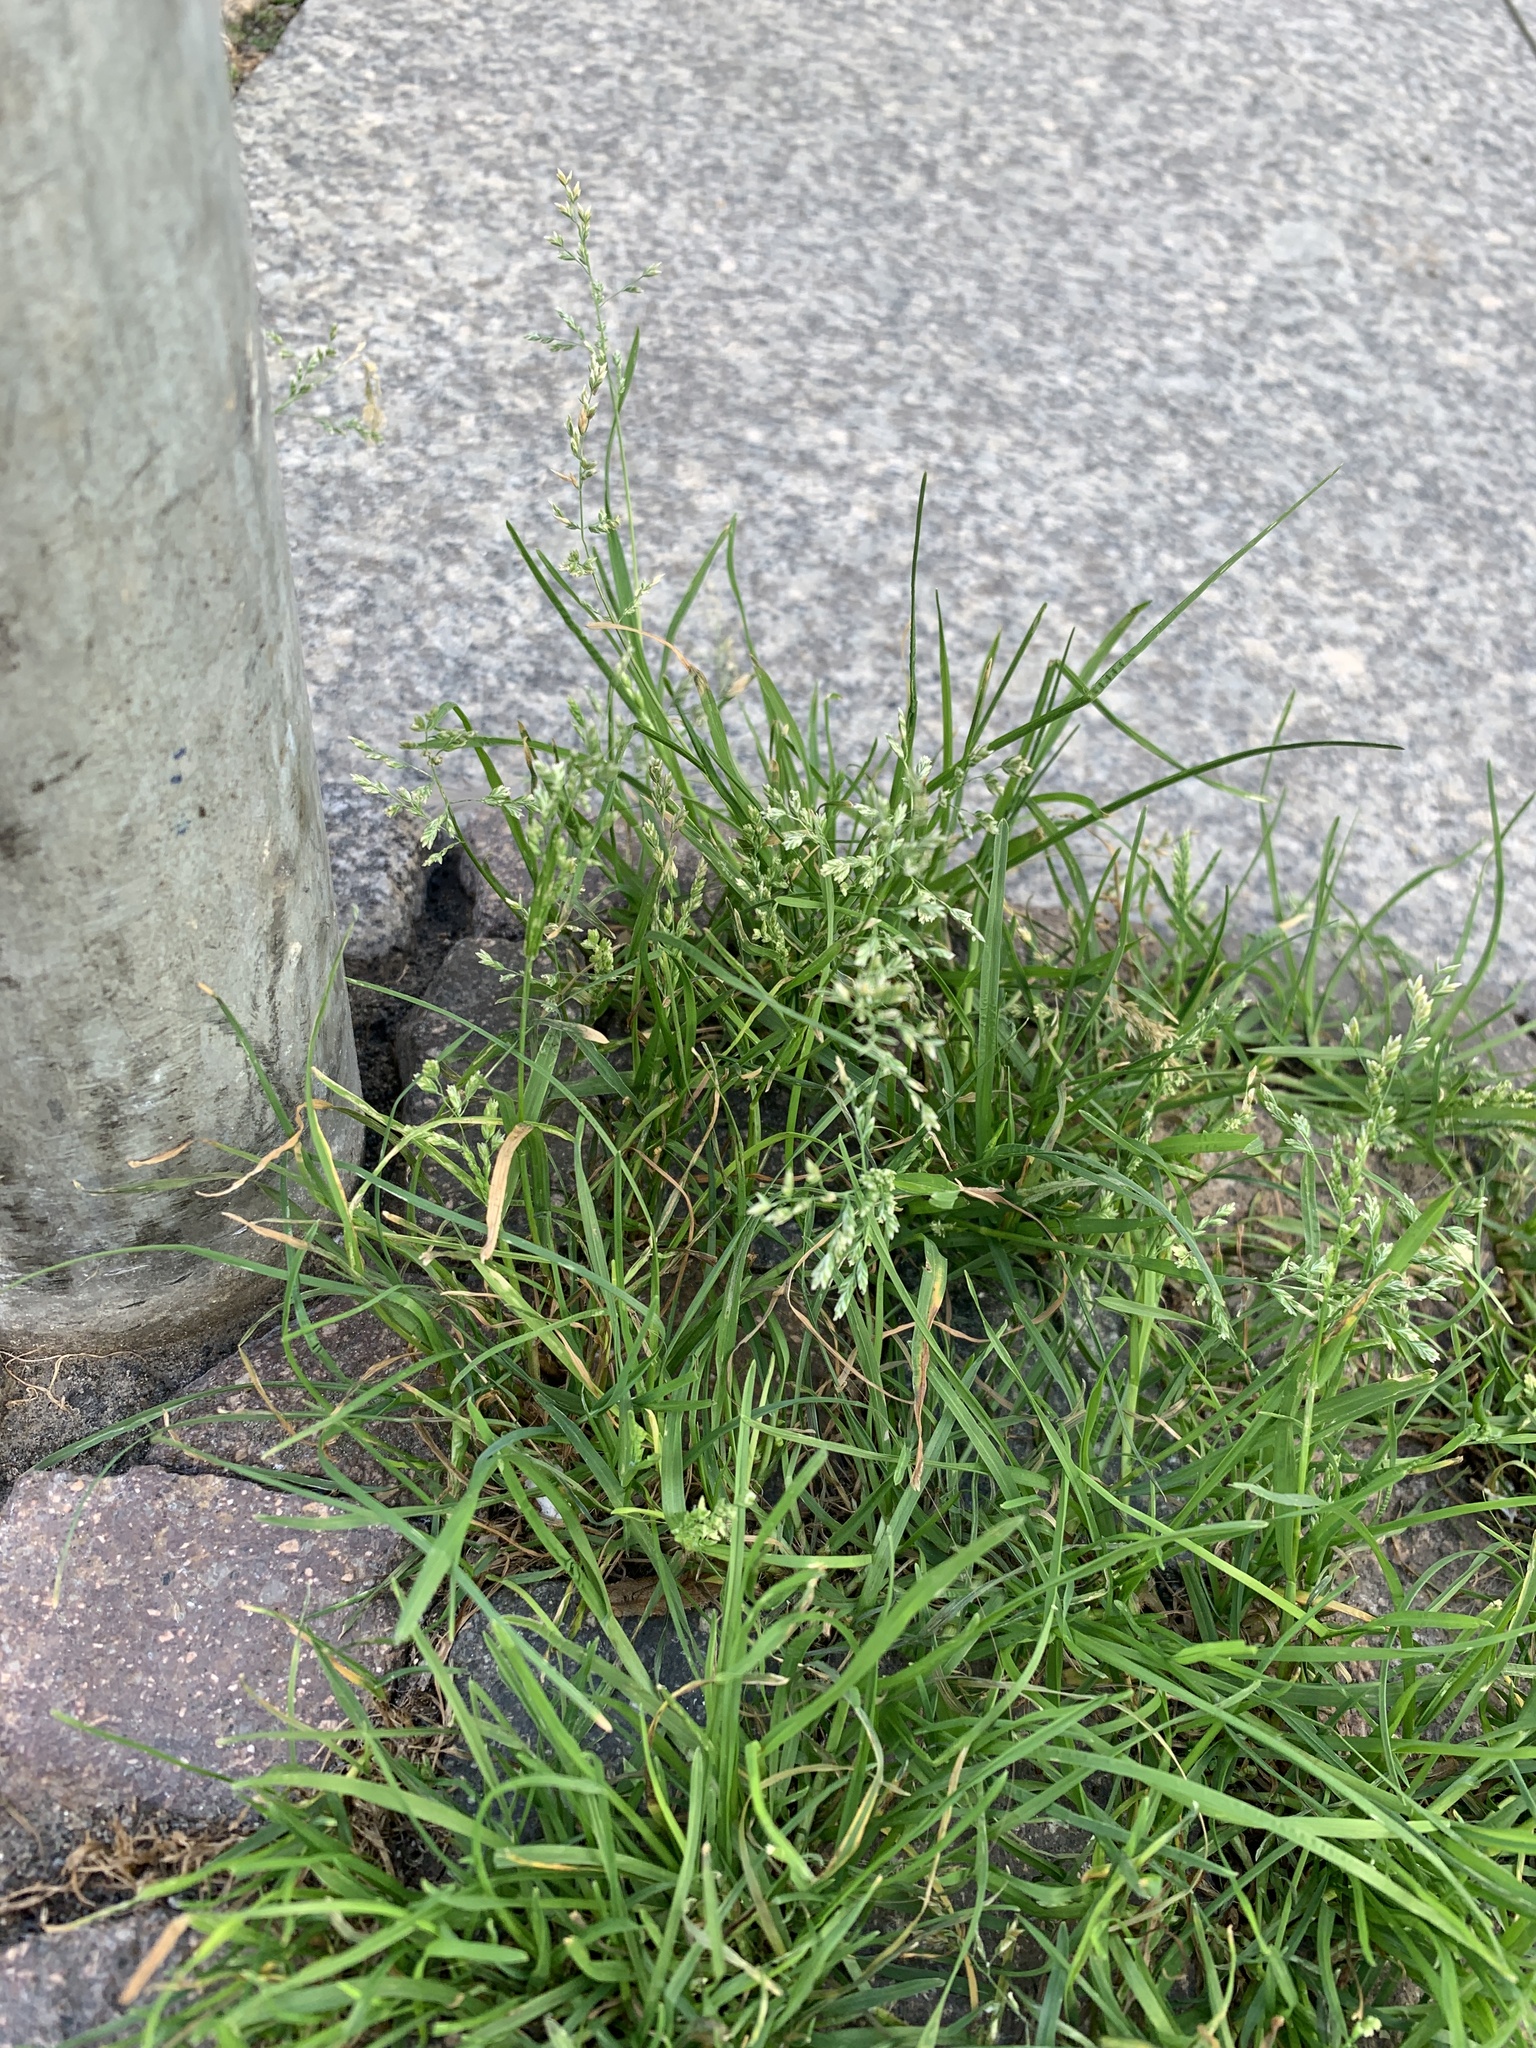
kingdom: Plantae
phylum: Tracheophyta
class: Liliopsida
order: Poales
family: Poaceae
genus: Poa
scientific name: Poa annua
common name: Annual bluegrass
